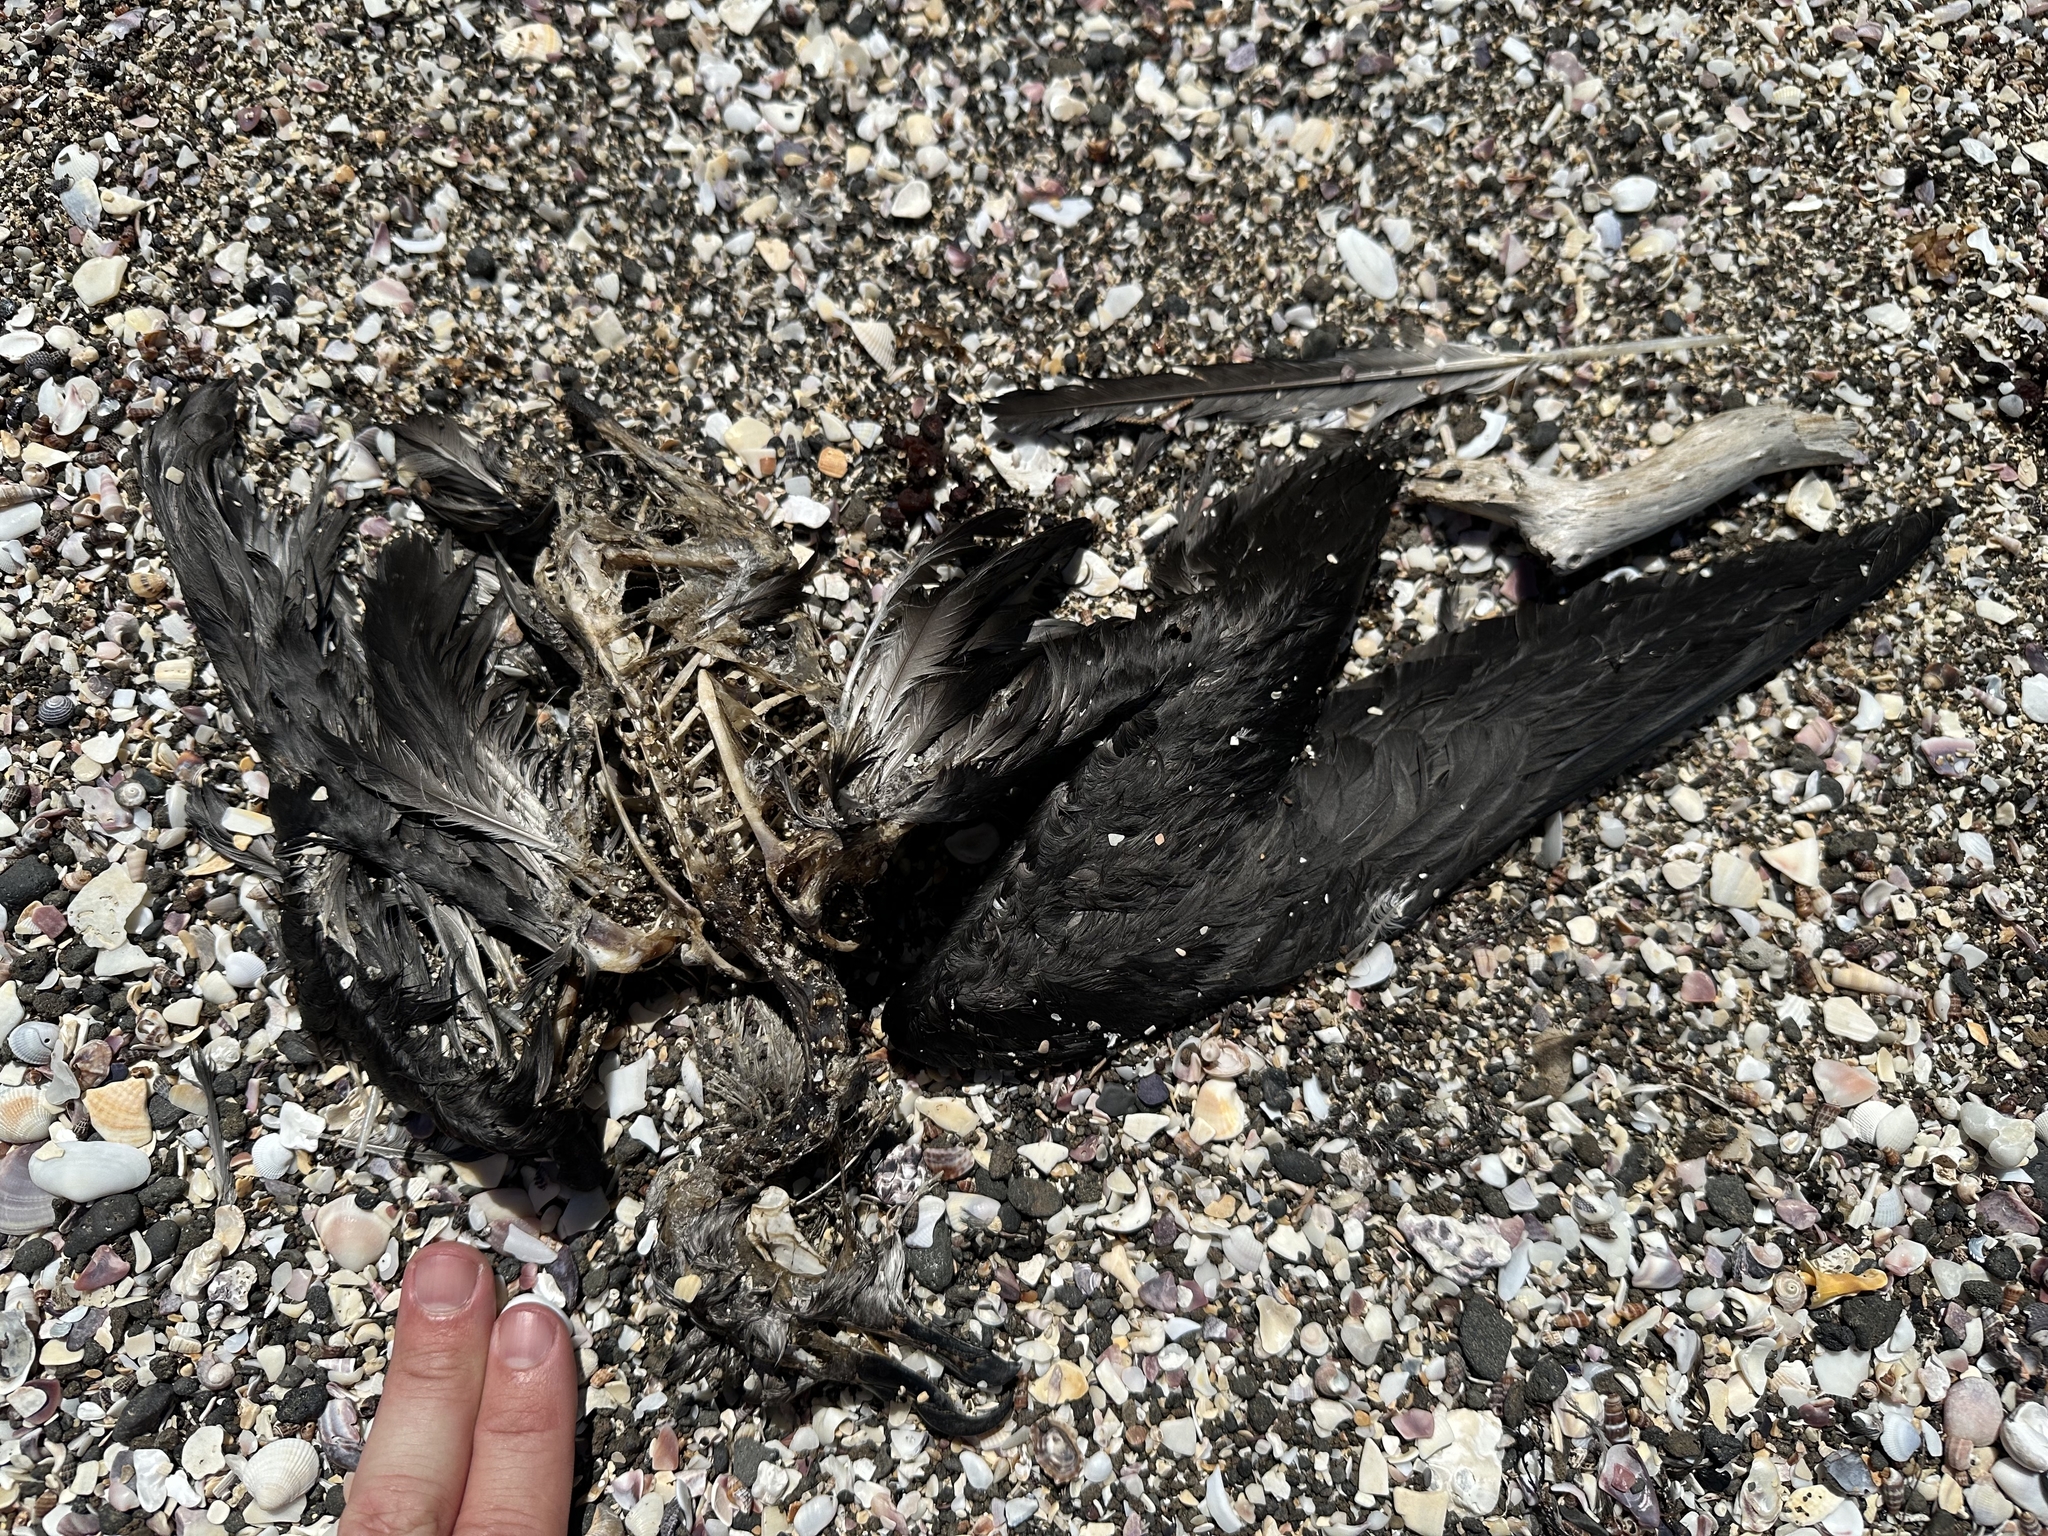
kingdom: Animalia
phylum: Chordata
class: Aves
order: Procellariiformes
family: Procellariidae
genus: Pterodroma
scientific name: Pterodroma macroptera
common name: Great-winged petrel
